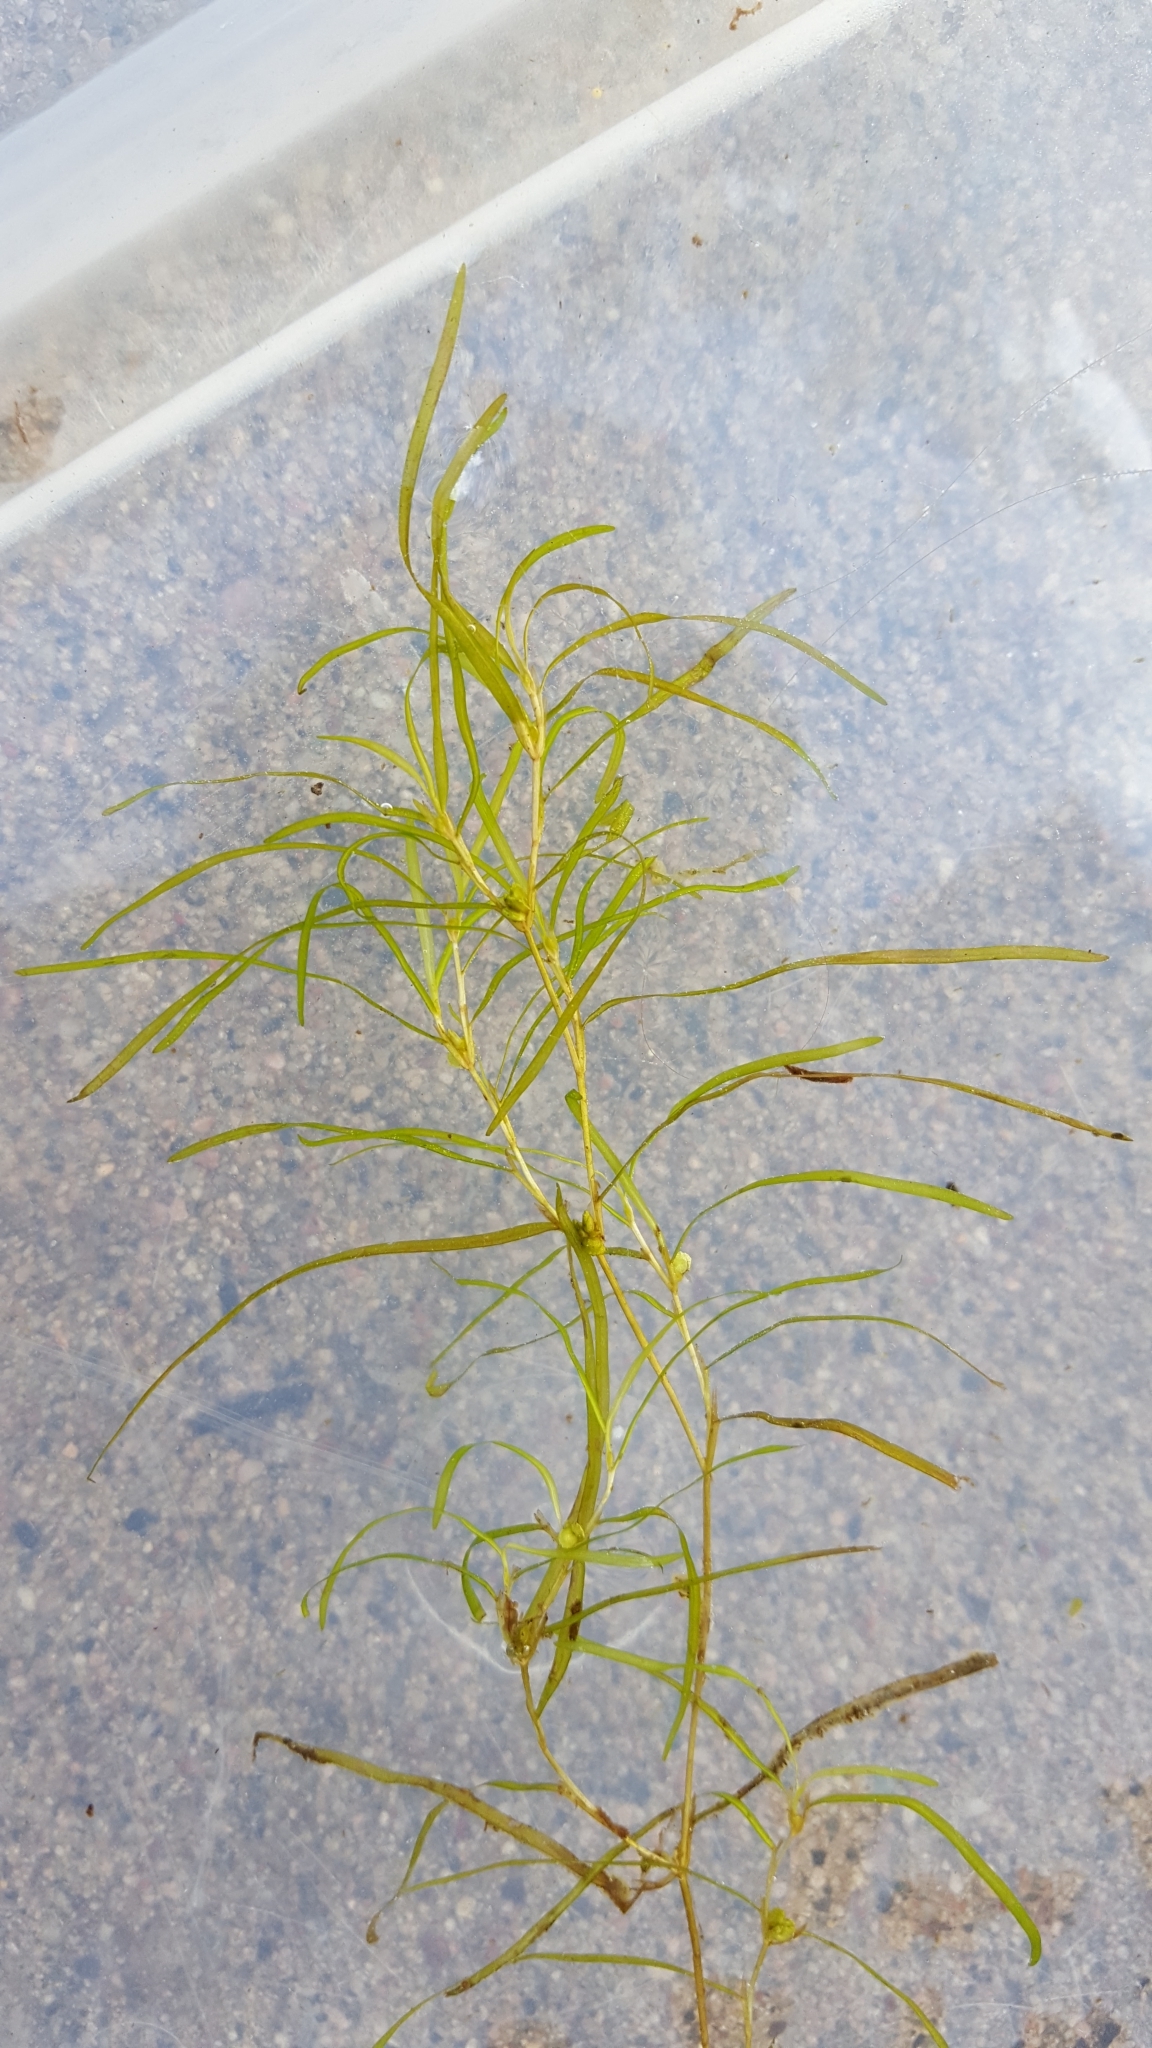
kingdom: Plantae
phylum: Tracheophyta
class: Liliopsida
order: Alismatales
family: Potamogetonaceae
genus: Potamogeton
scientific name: Potamogeton foliosus
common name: Leafy pondweed
